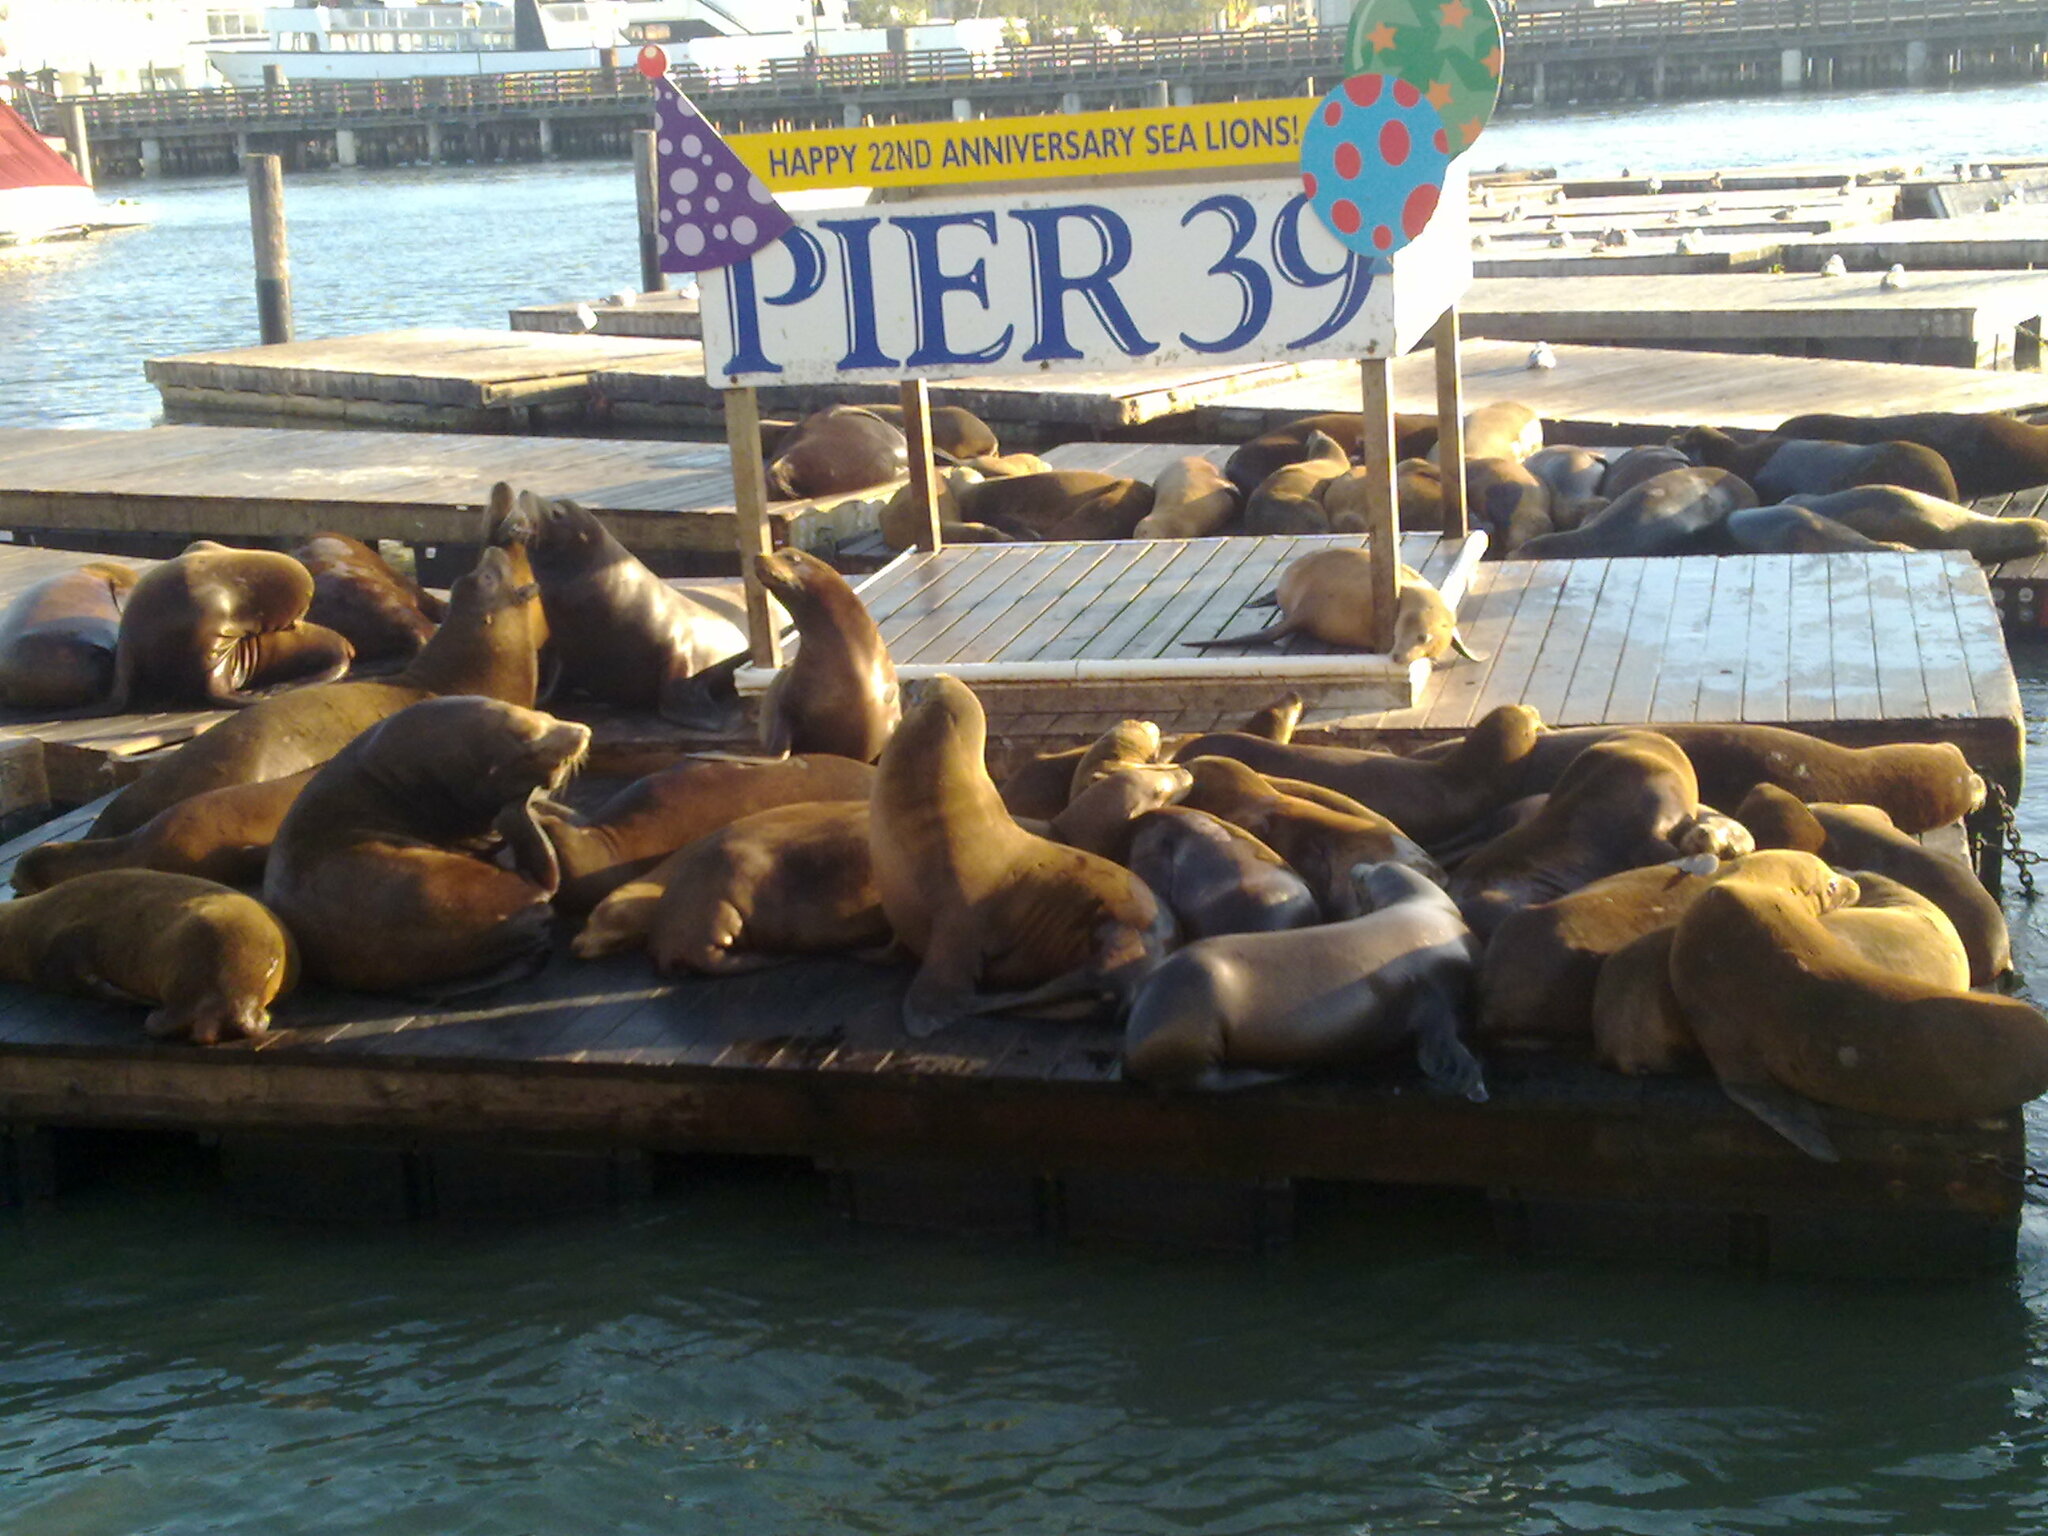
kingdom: Animalia
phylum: Chordata
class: Mammalia
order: Carnivora
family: Otariidae
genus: Zalophus
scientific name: Zalophus californianus
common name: California sea lion
